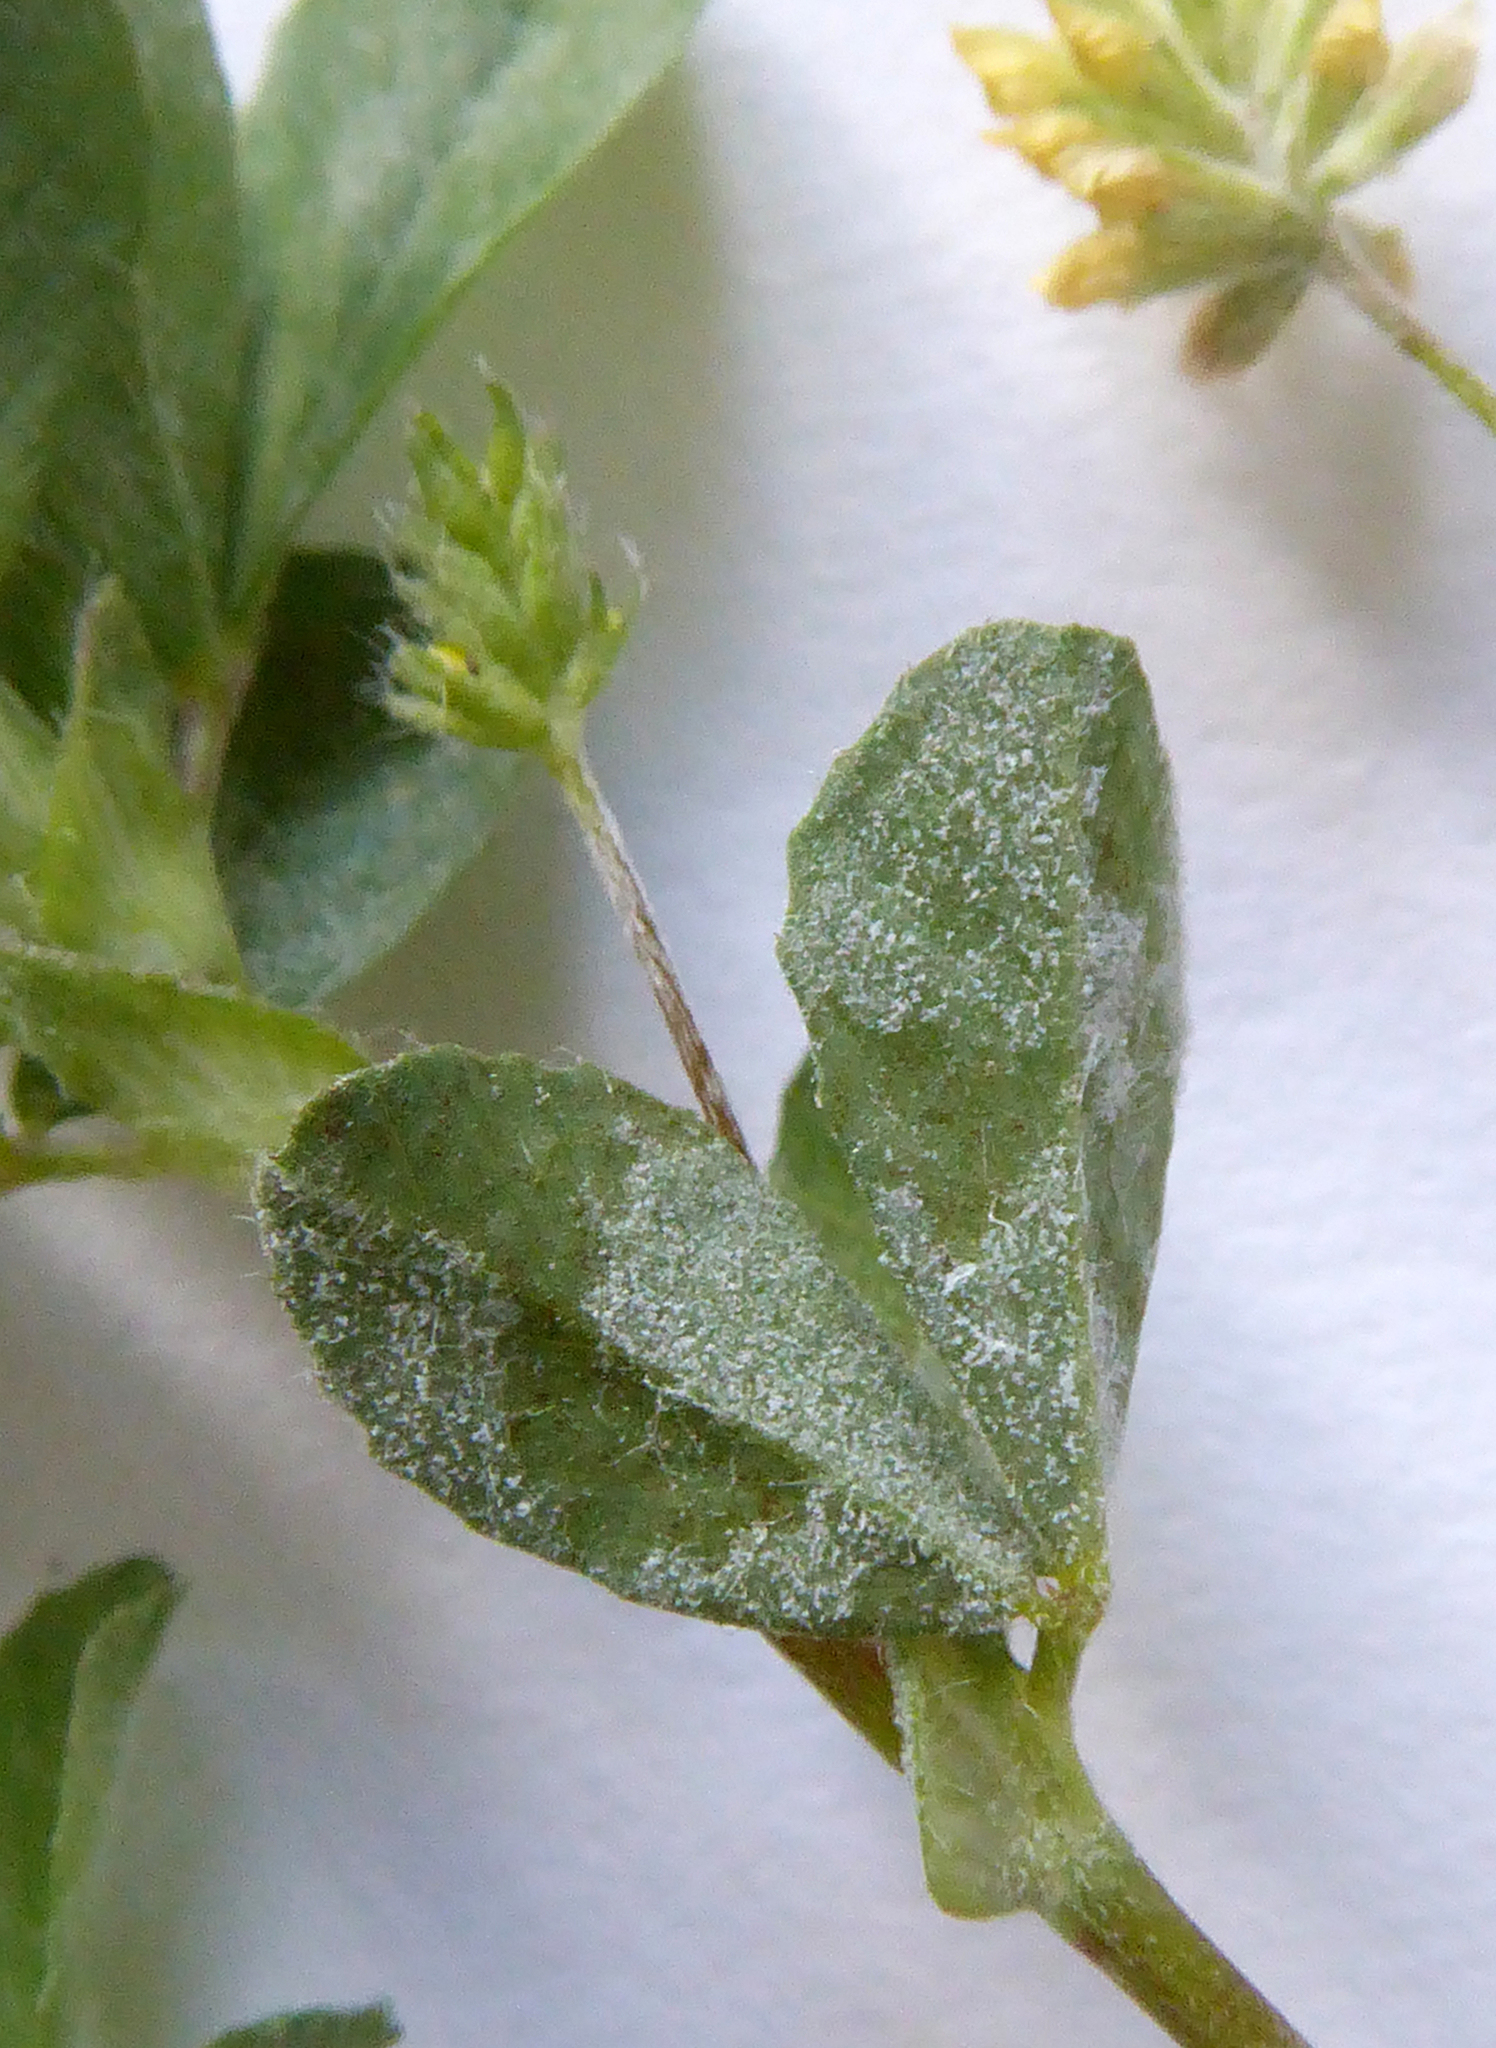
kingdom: Fungi
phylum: Ascomycota
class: Leotiomycetes
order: Helotiales
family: Erysiphaceae
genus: Erysiphe
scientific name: Erysiphe trifoliorum
